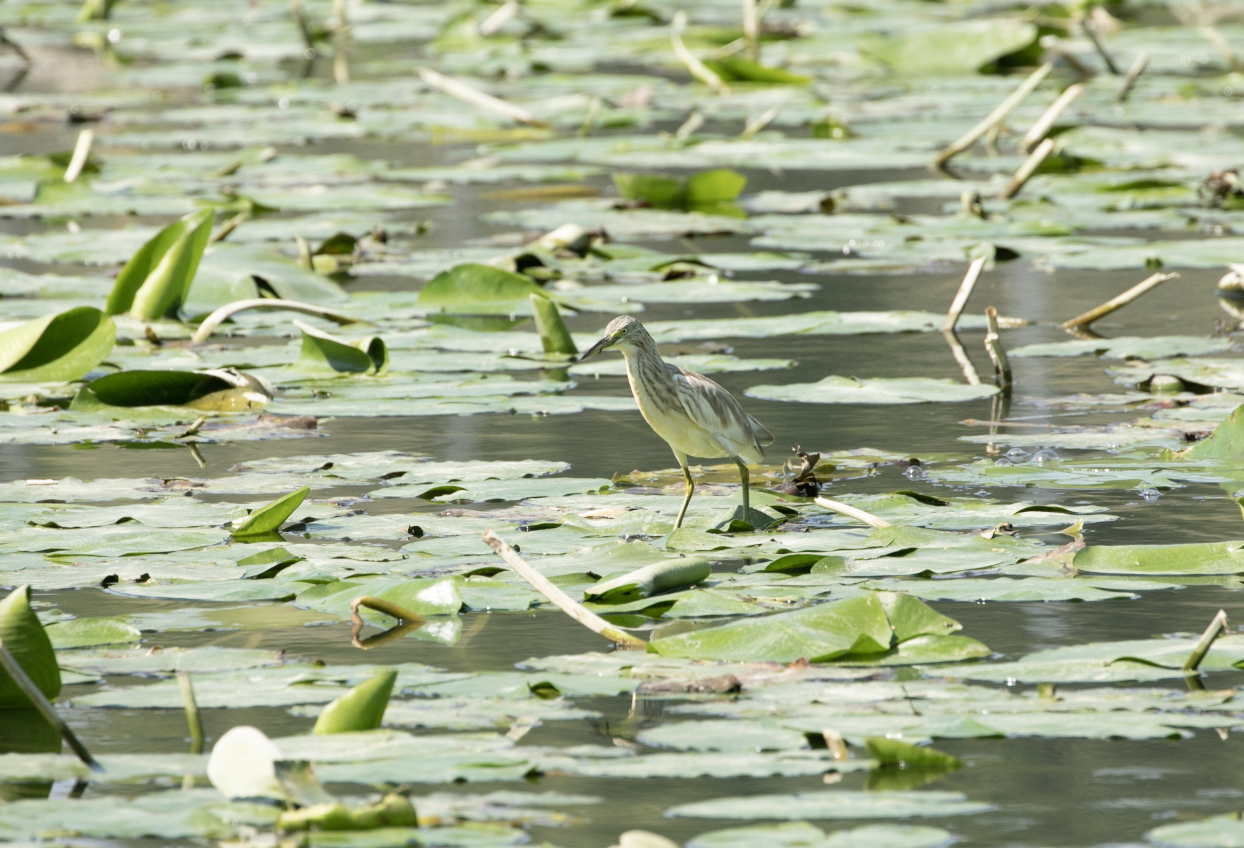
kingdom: Animalia
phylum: Chordata
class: Aves
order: Pelecaniformes
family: Ardeidae
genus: Ardeola
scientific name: Ardeola ralloides
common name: Squacco heron
